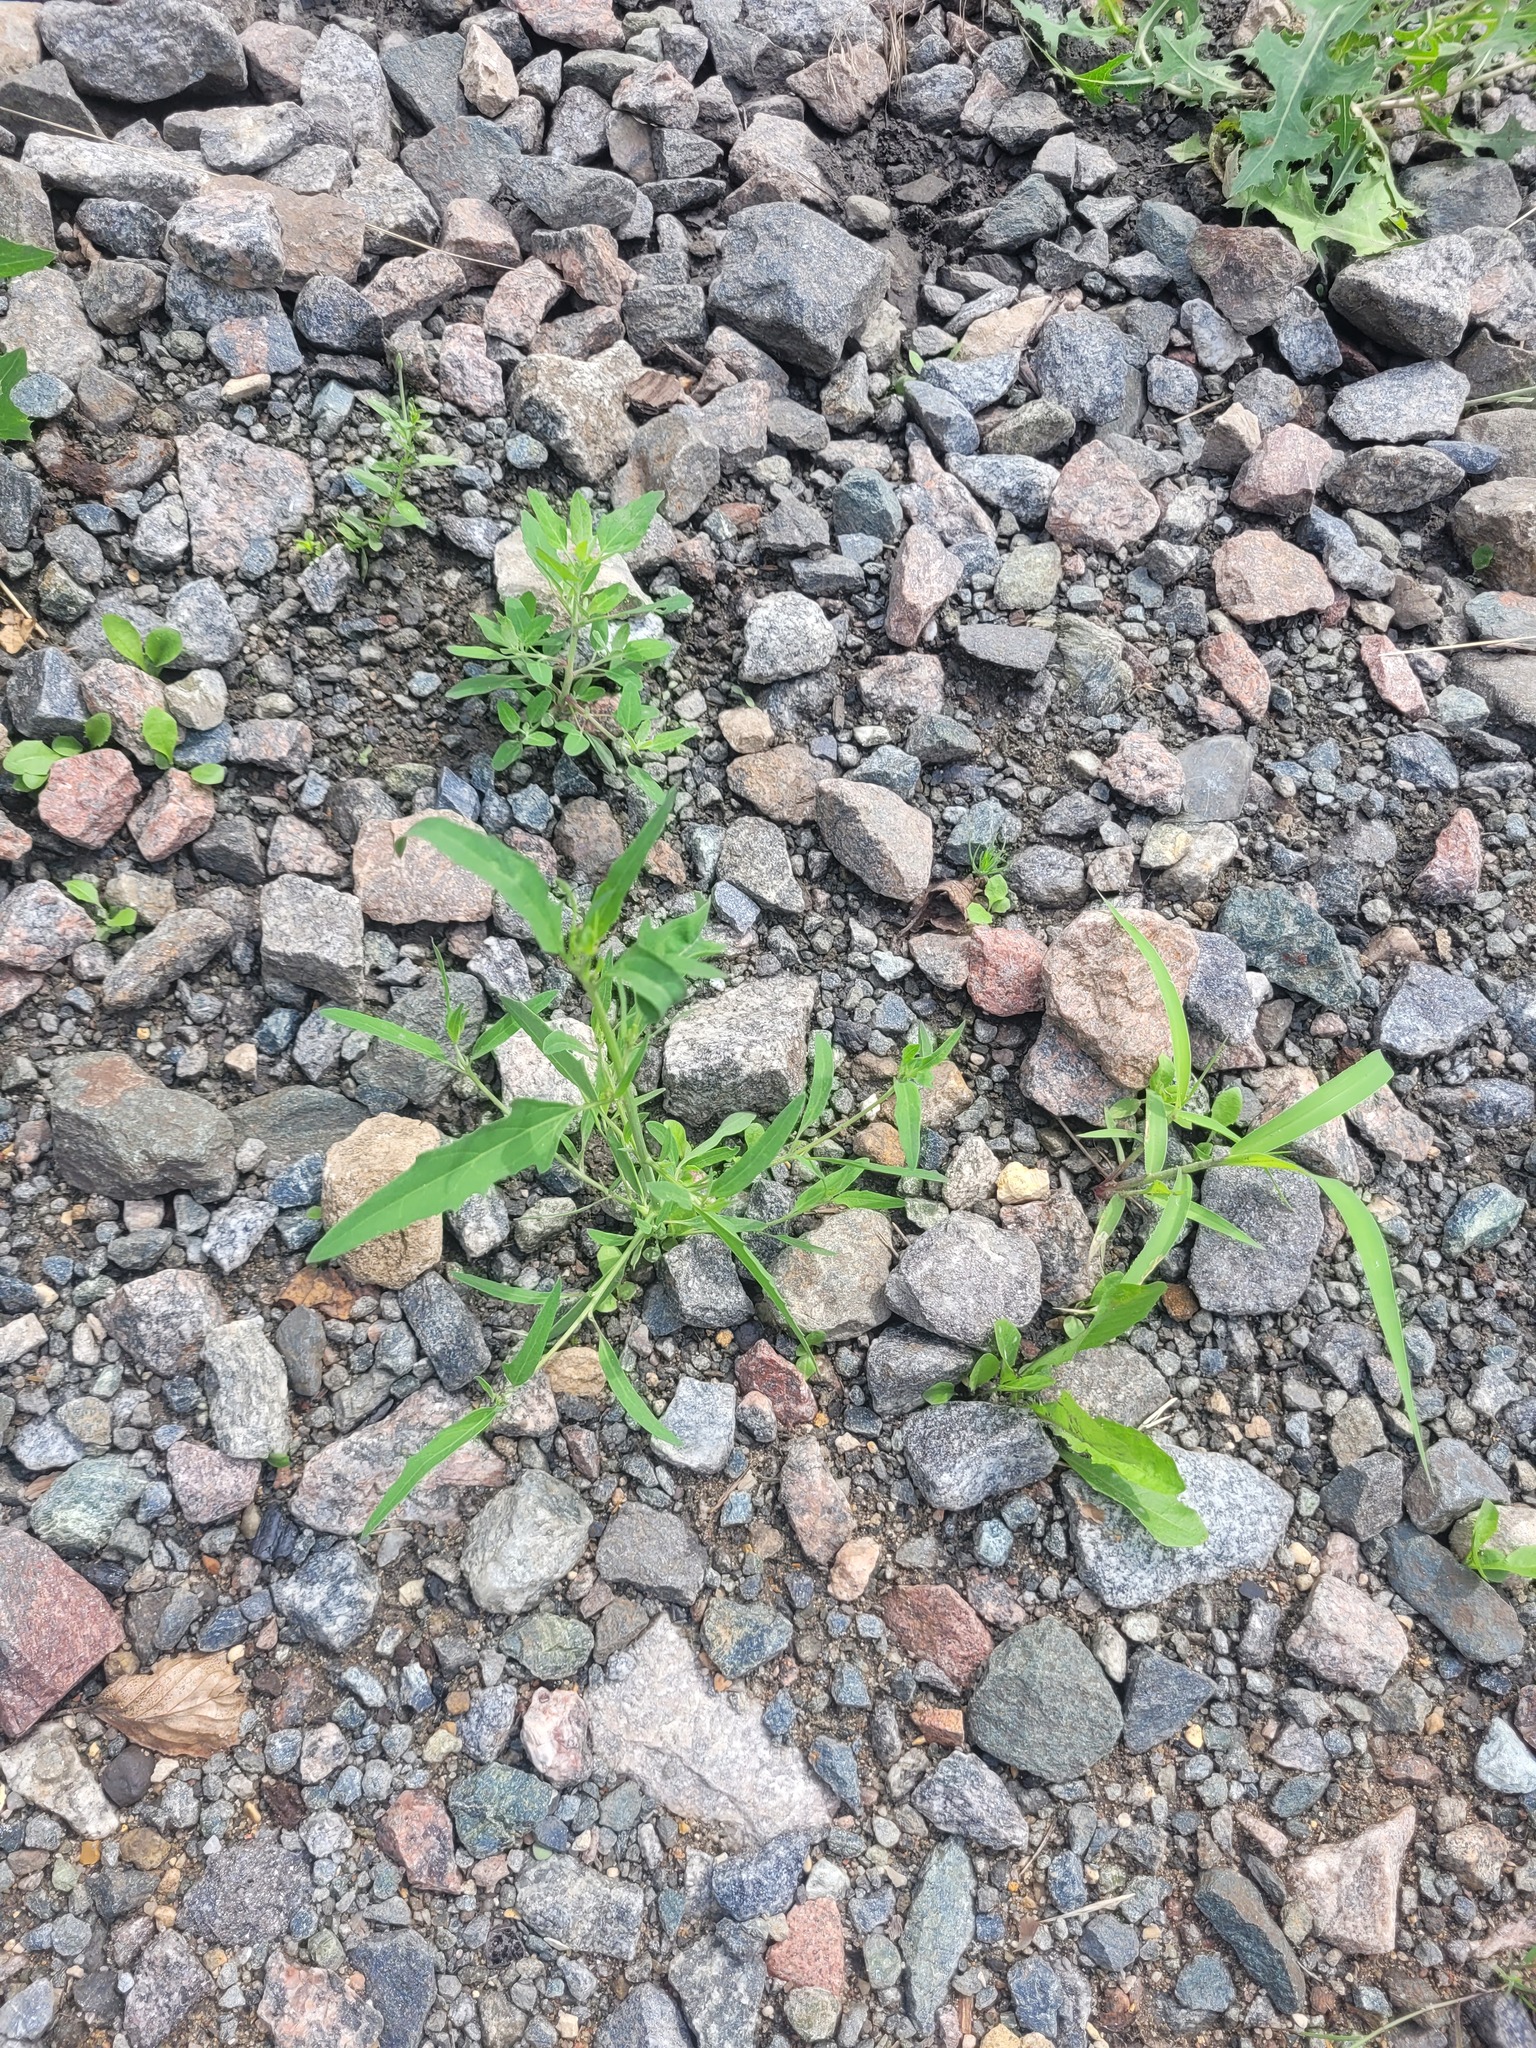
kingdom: Plantae
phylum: Tracheophyta
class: Magnoliopsida
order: Caryophyllales
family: Amaranthaceae
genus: Atriplex
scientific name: Atriplex patula
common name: Common orache
